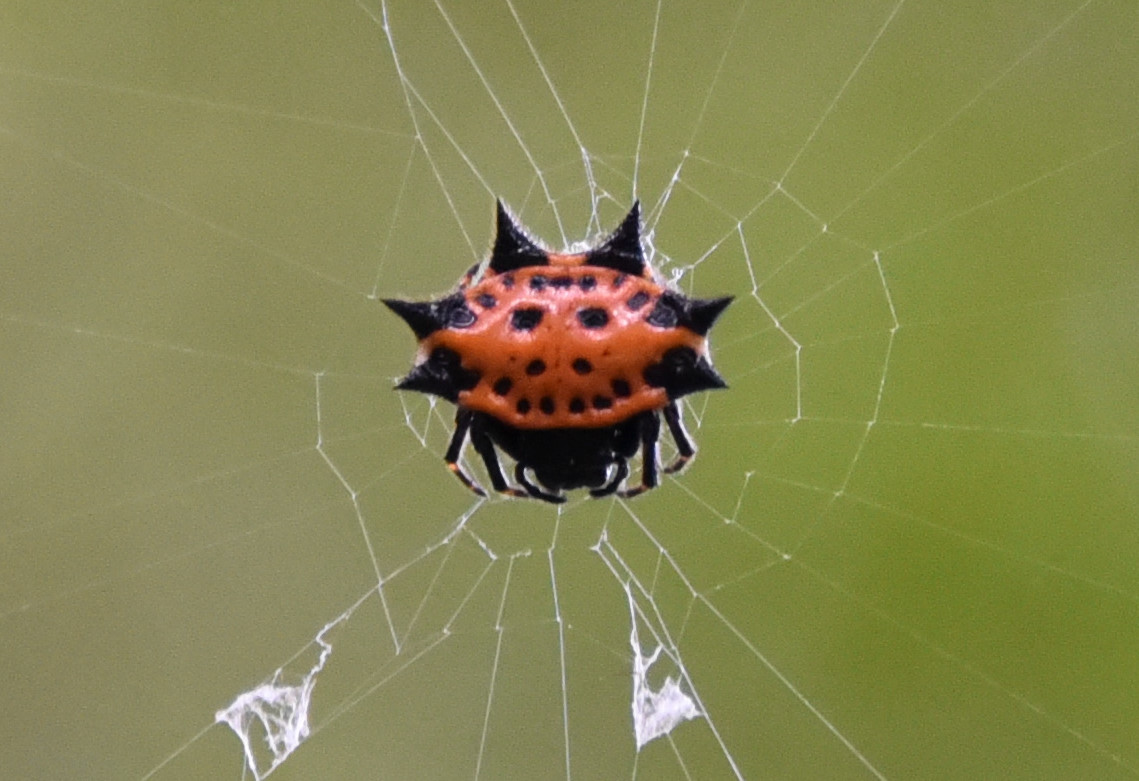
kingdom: Animalia
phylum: Arthropoda
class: Arachnida
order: Araneae
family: Araneidae
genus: Gasteracantha
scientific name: Gasteracantha cancriformis
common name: Orb weavers
